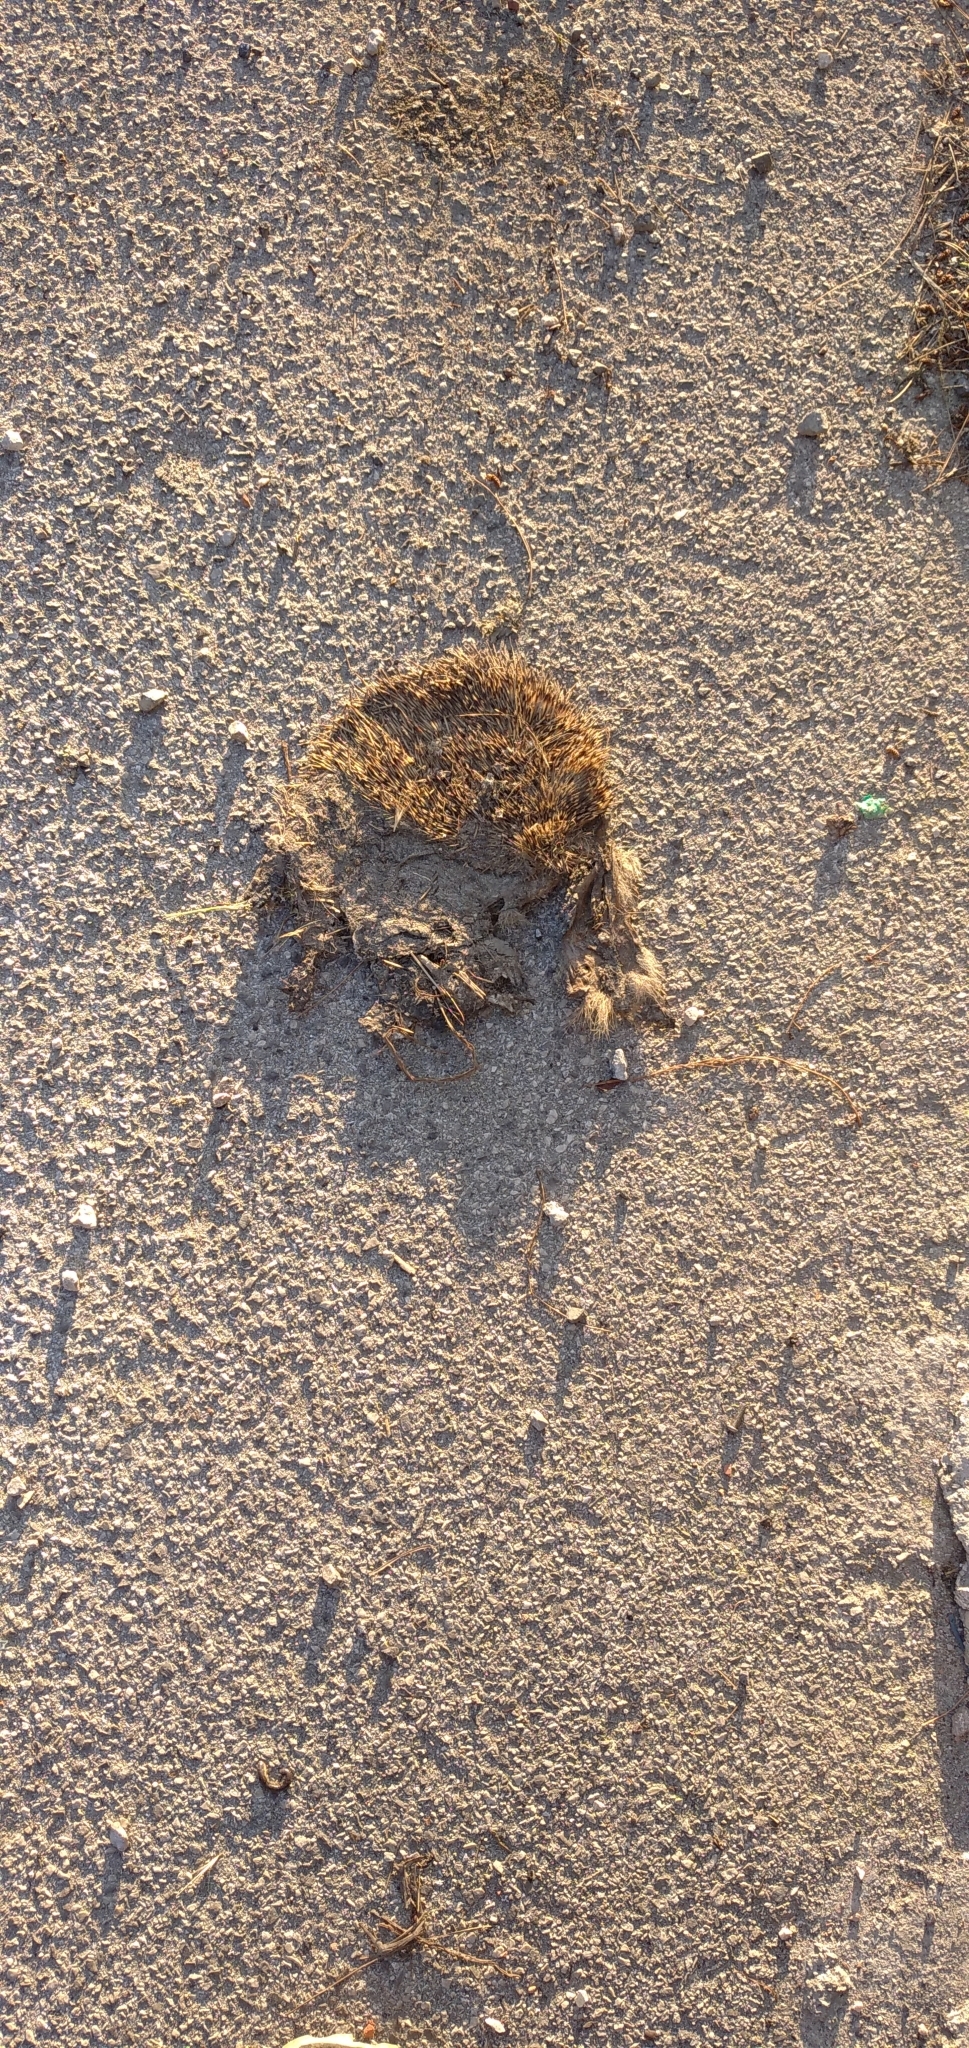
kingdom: Animalia
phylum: Chordata
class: Mammalia
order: Erinaceomorpha
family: Erinaceidae
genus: Erinaceus
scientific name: Erinaceus europaeus
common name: West european hedgehog
